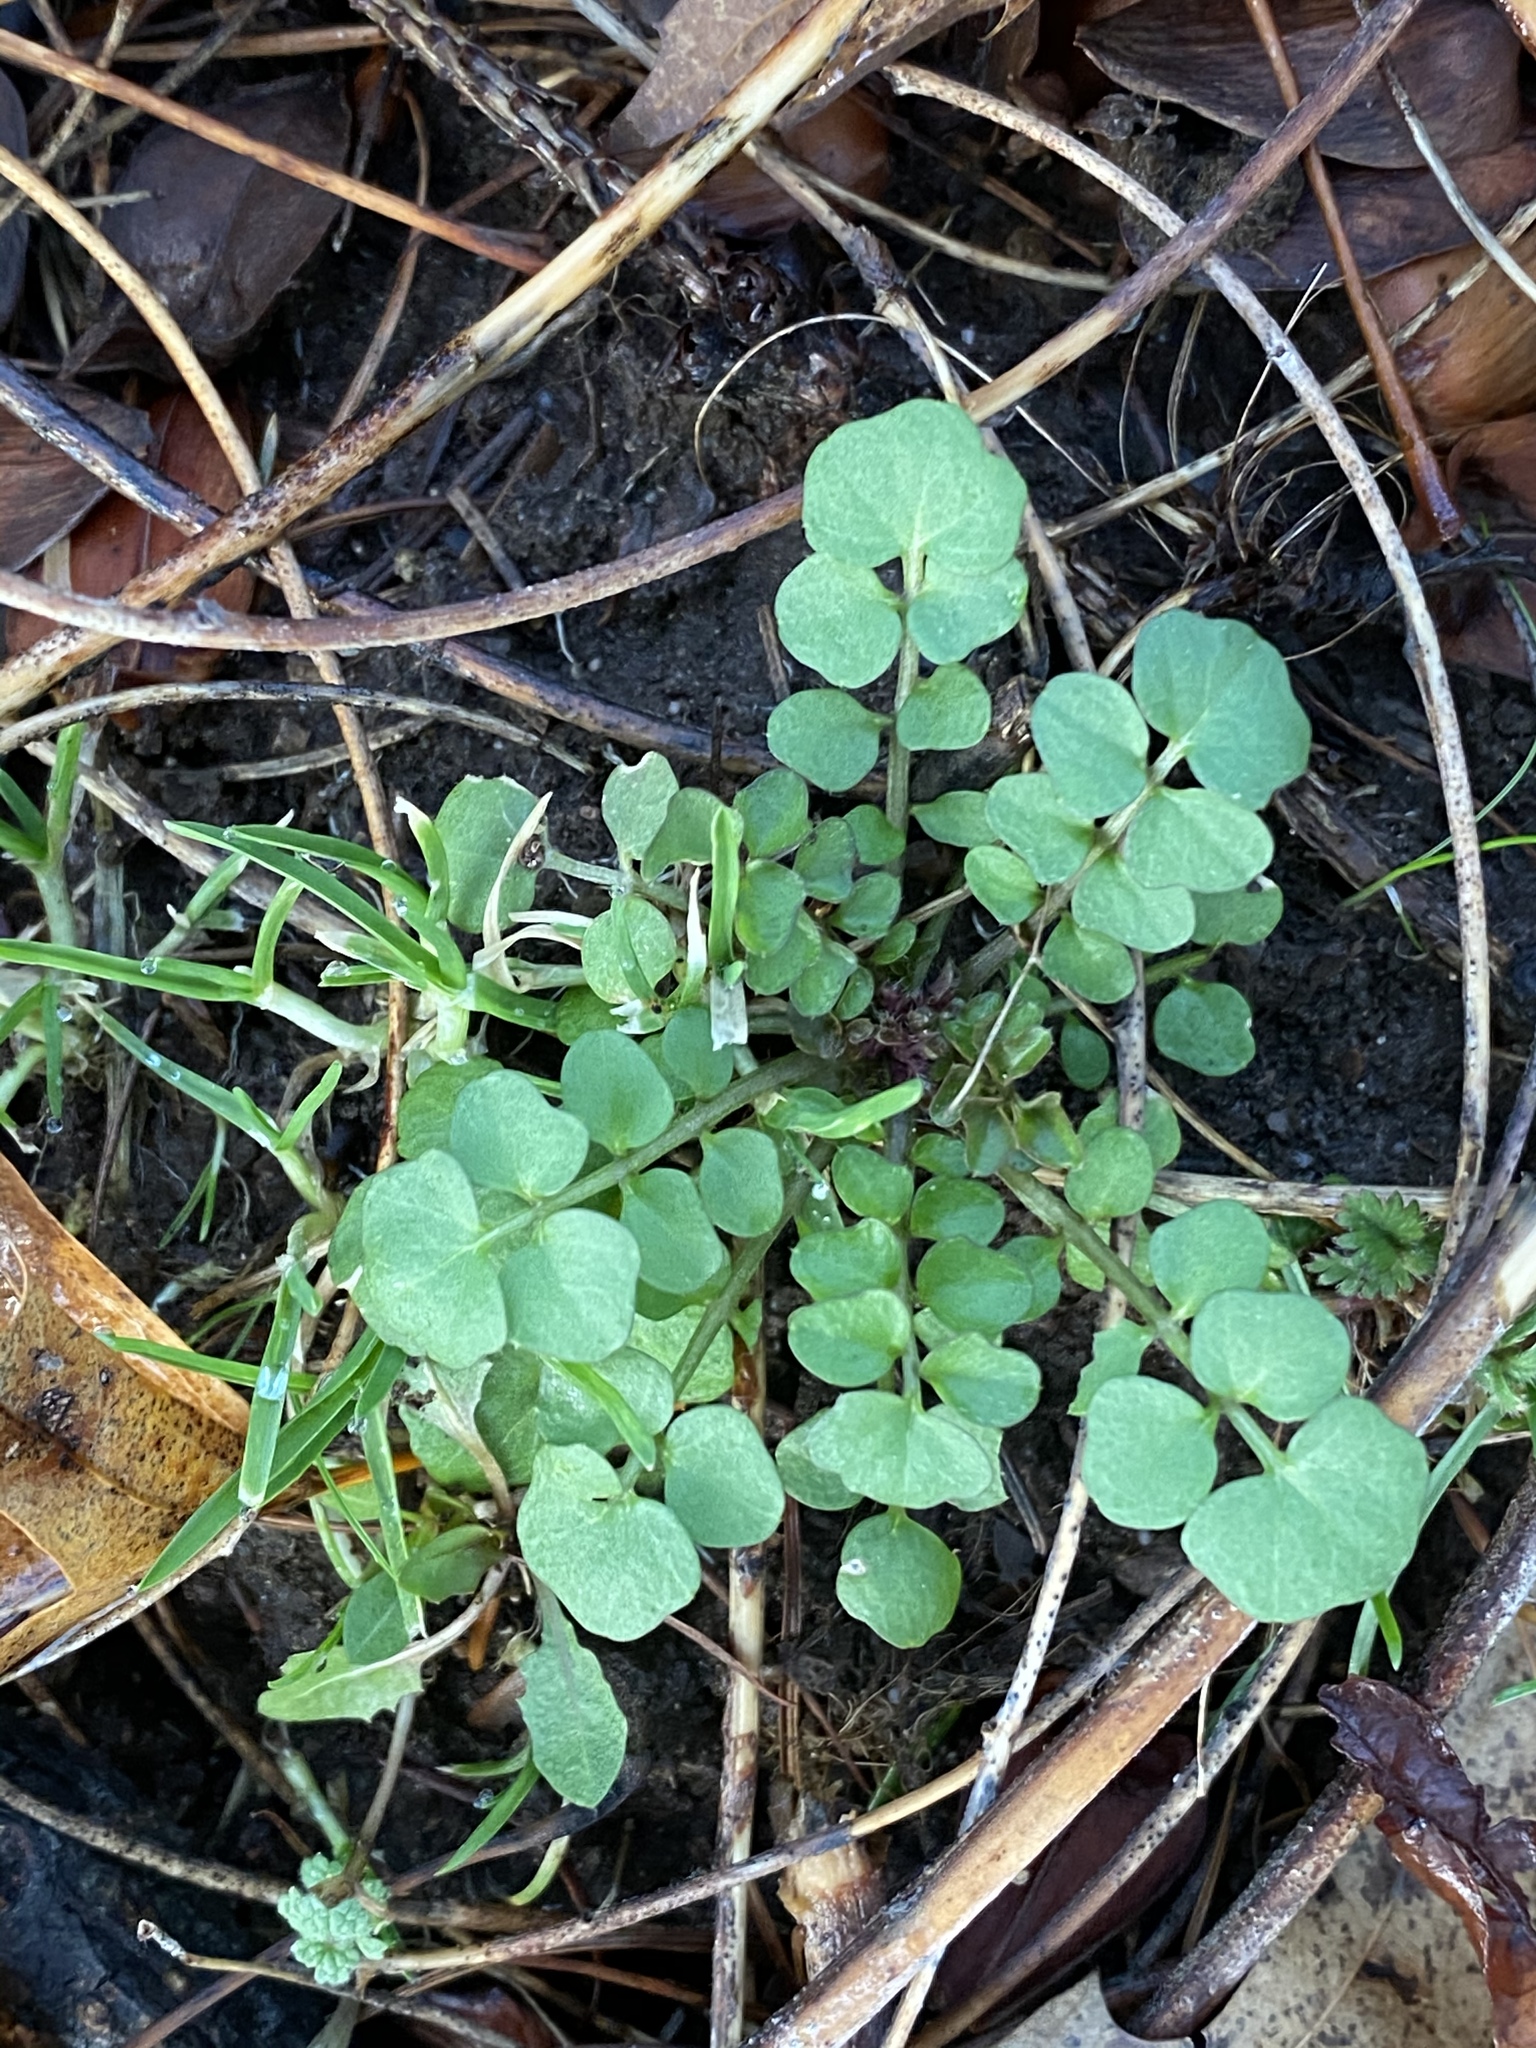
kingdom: Plantae
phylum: Tracheophyta
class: Magnoliopsida
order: Brassicales
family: Brassicaceae
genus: Cardamine
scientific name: Cardamine hirsuta
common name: Hairy bittercress
